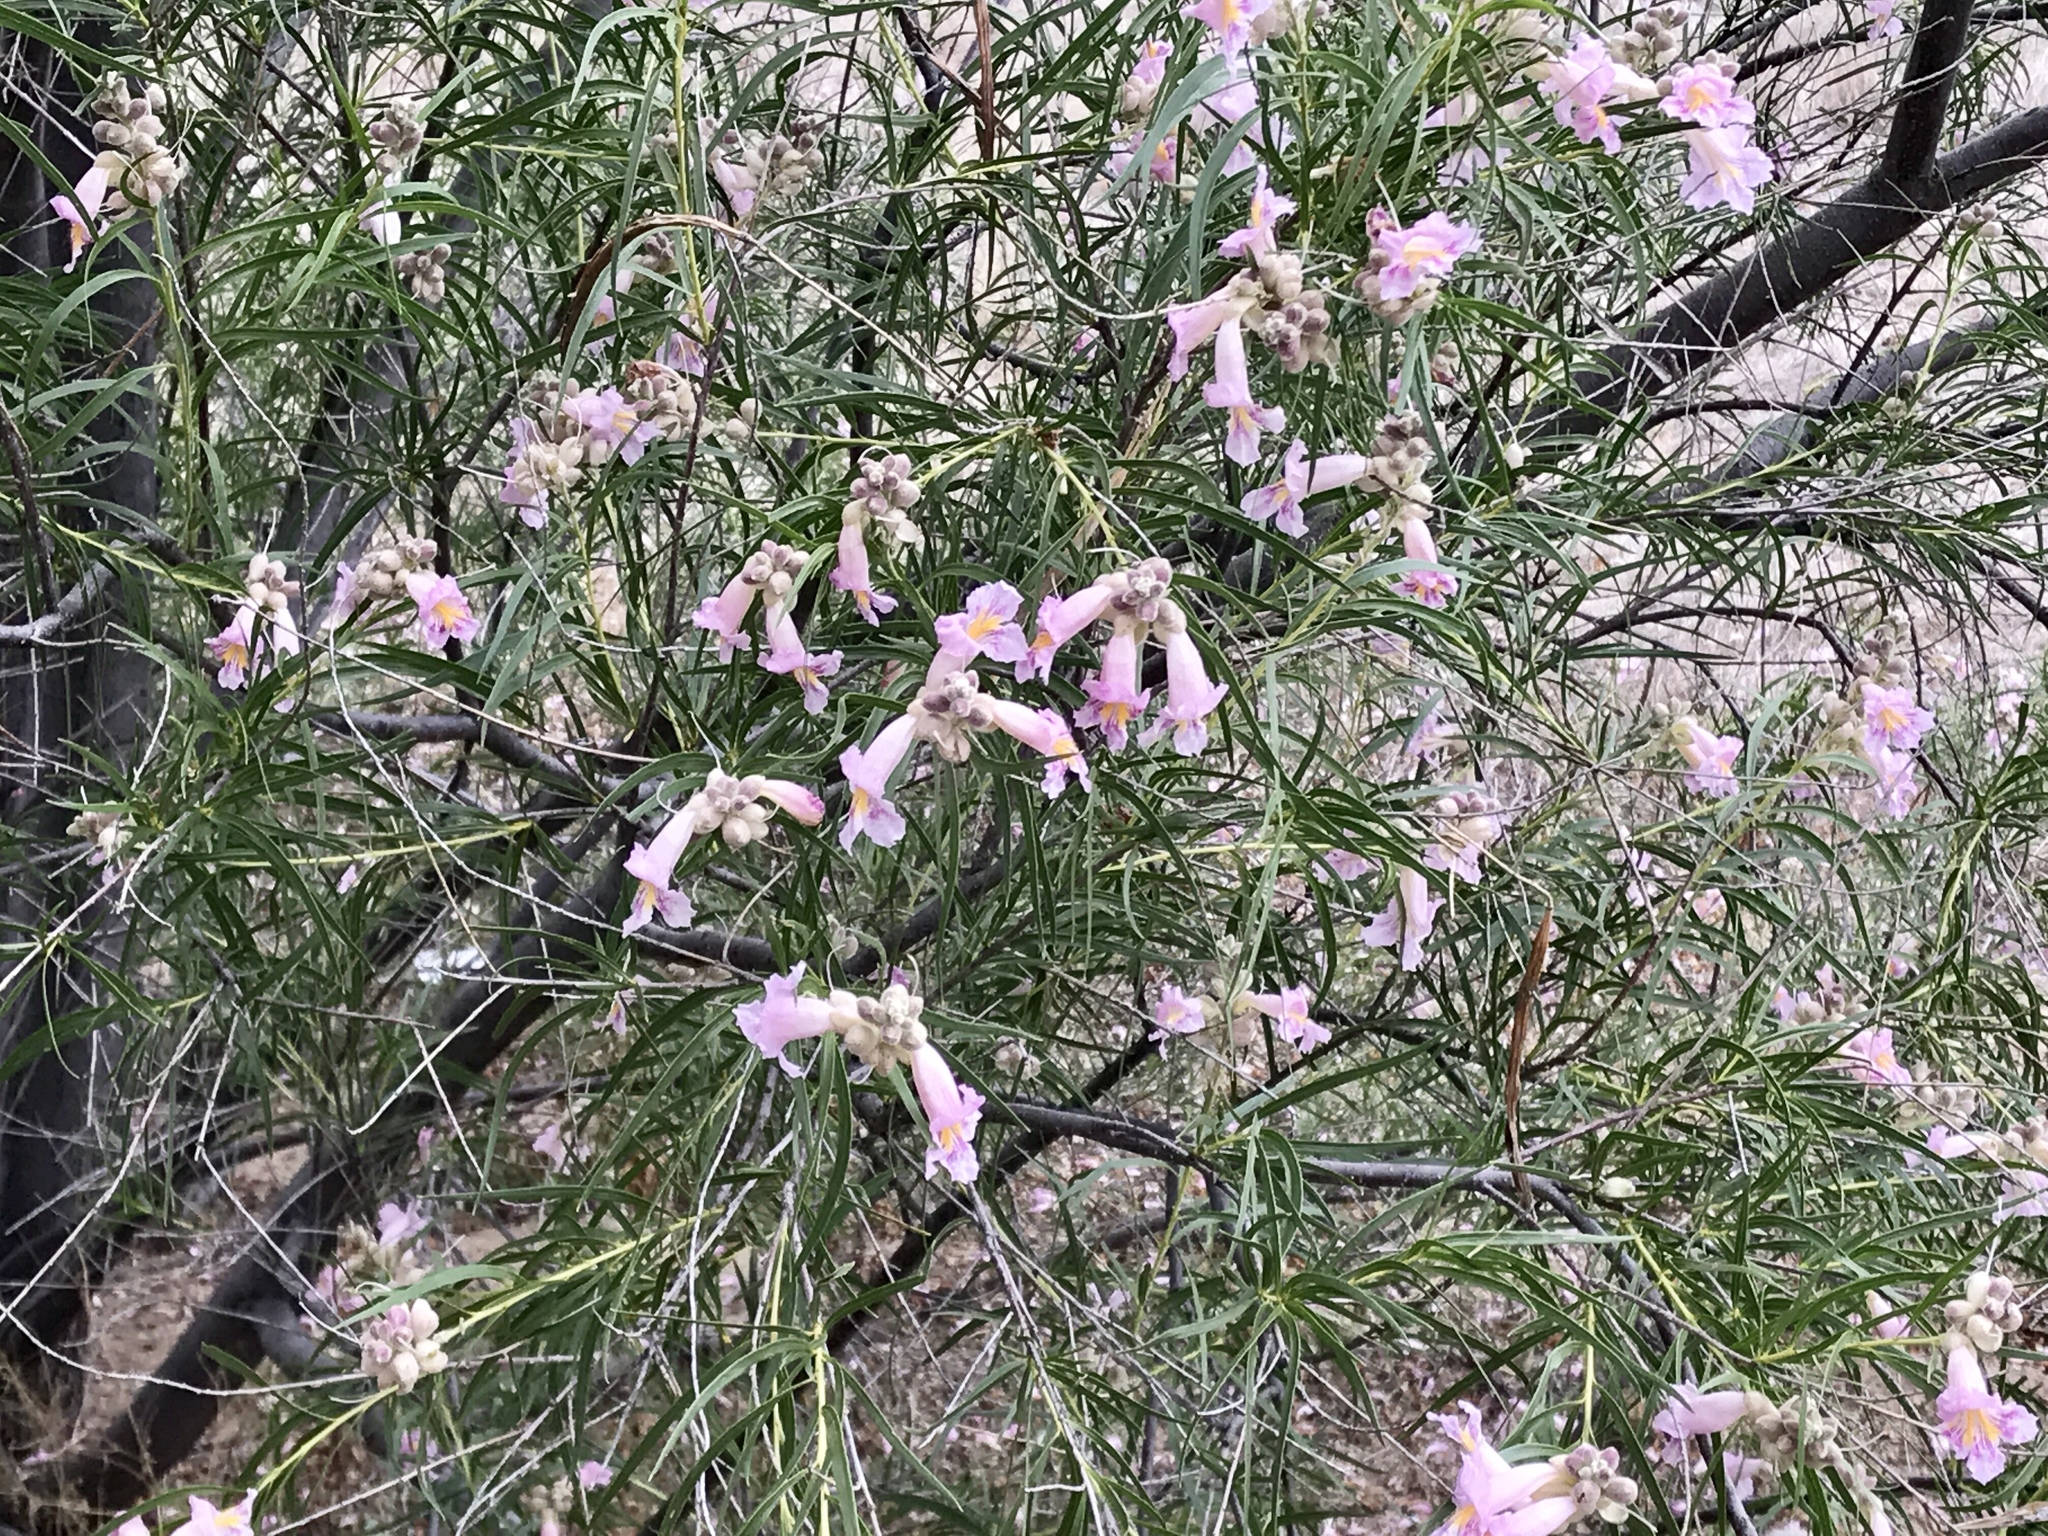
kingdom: Plantae
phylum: Tracheophyta
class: Magnoliopsida
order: Lamiales
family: Bignoniaceae
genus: Chilopsis
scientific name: Chilopsis linearis
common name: Desert-willow
